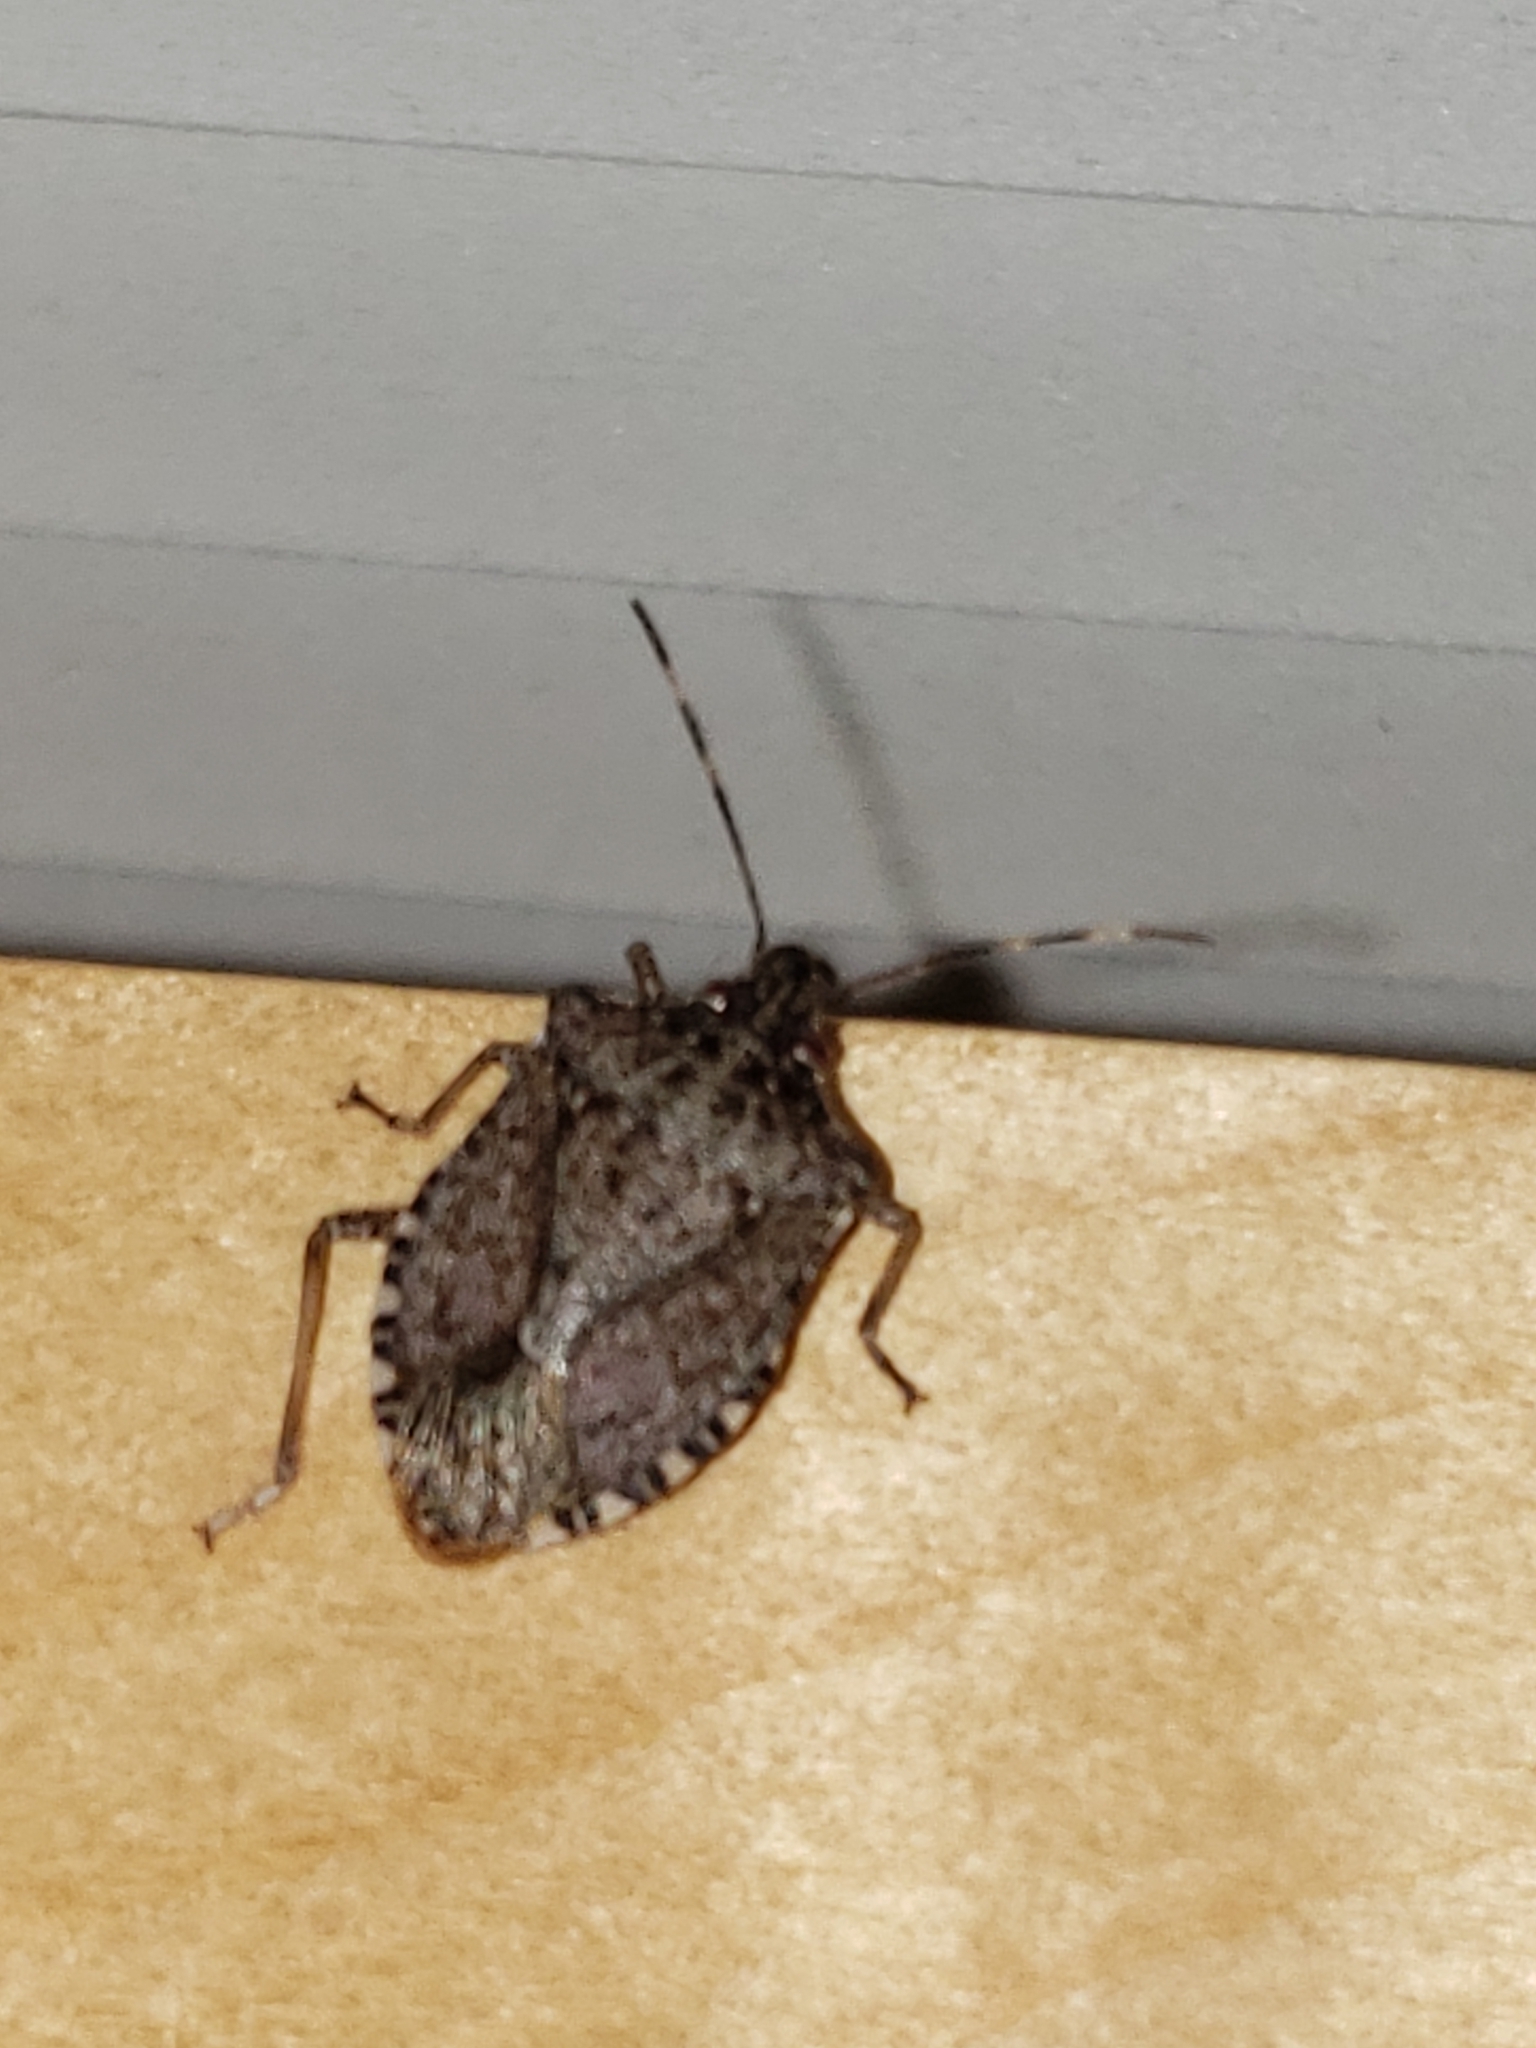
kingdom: Animalia
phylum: Arthropoda
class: Insecta
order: Hemiptera
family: Pentatomidae
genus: Halyomorpha
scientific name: Halyomorpha halys
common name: Brown marmorated stink bug
